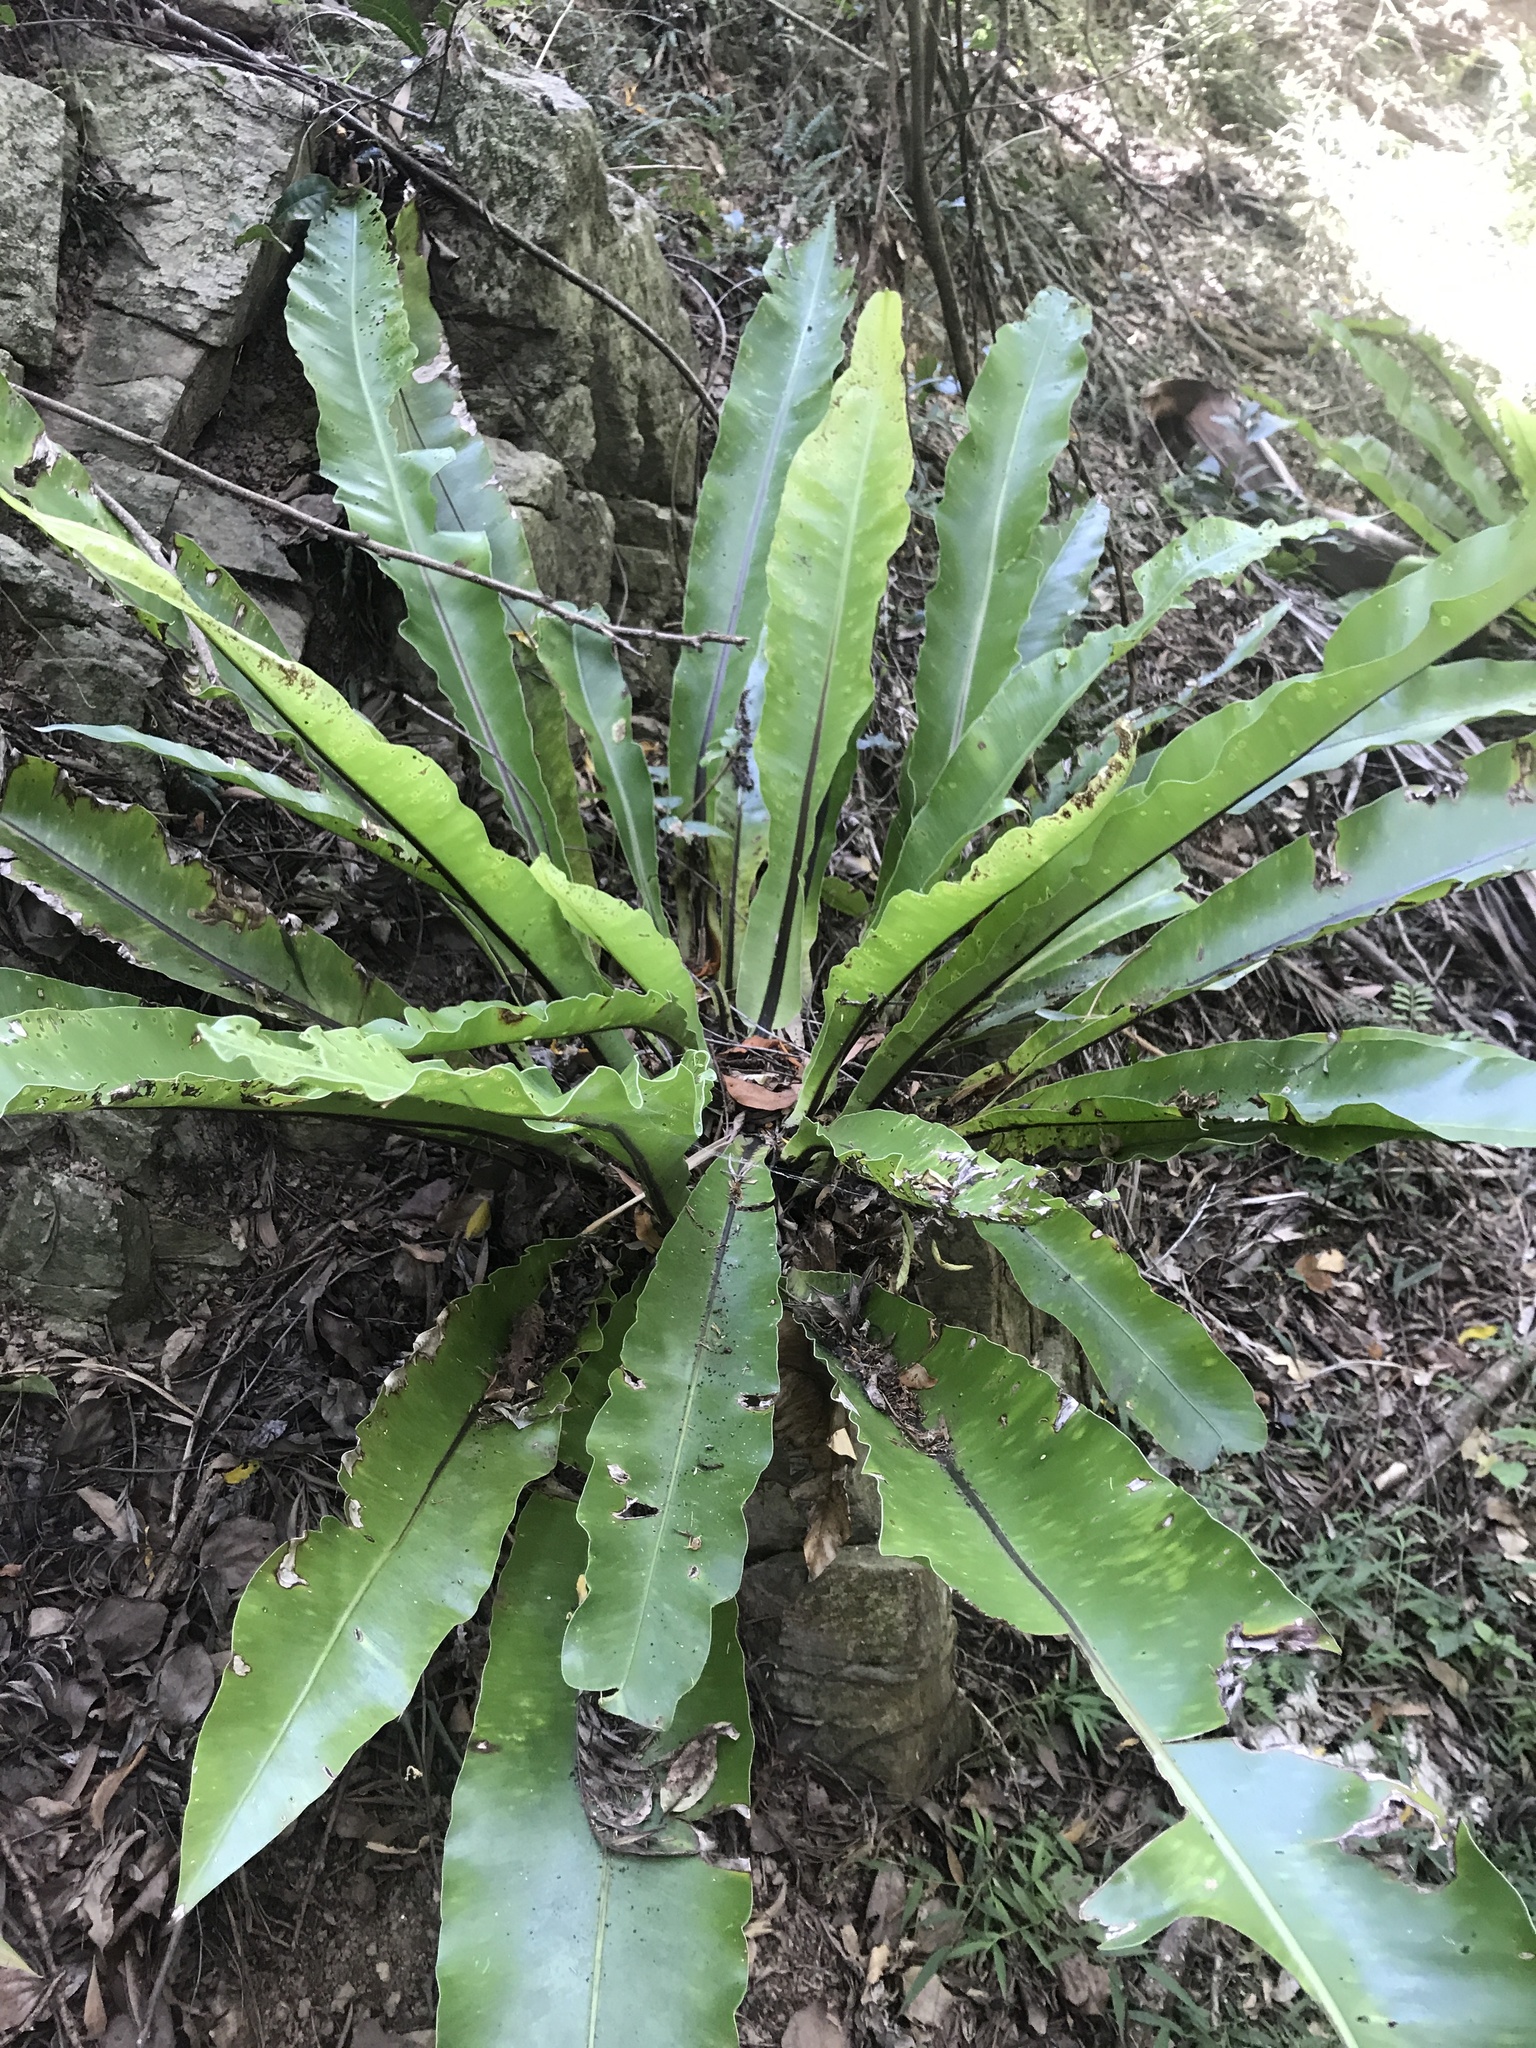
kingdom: Plantae
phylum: Tracheophyta
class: Polypodiopsida
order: Polypodiales
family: Aspleniaceae
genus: Asplenium
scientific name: Asplenium australasicum
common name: Bird's-nest fern
